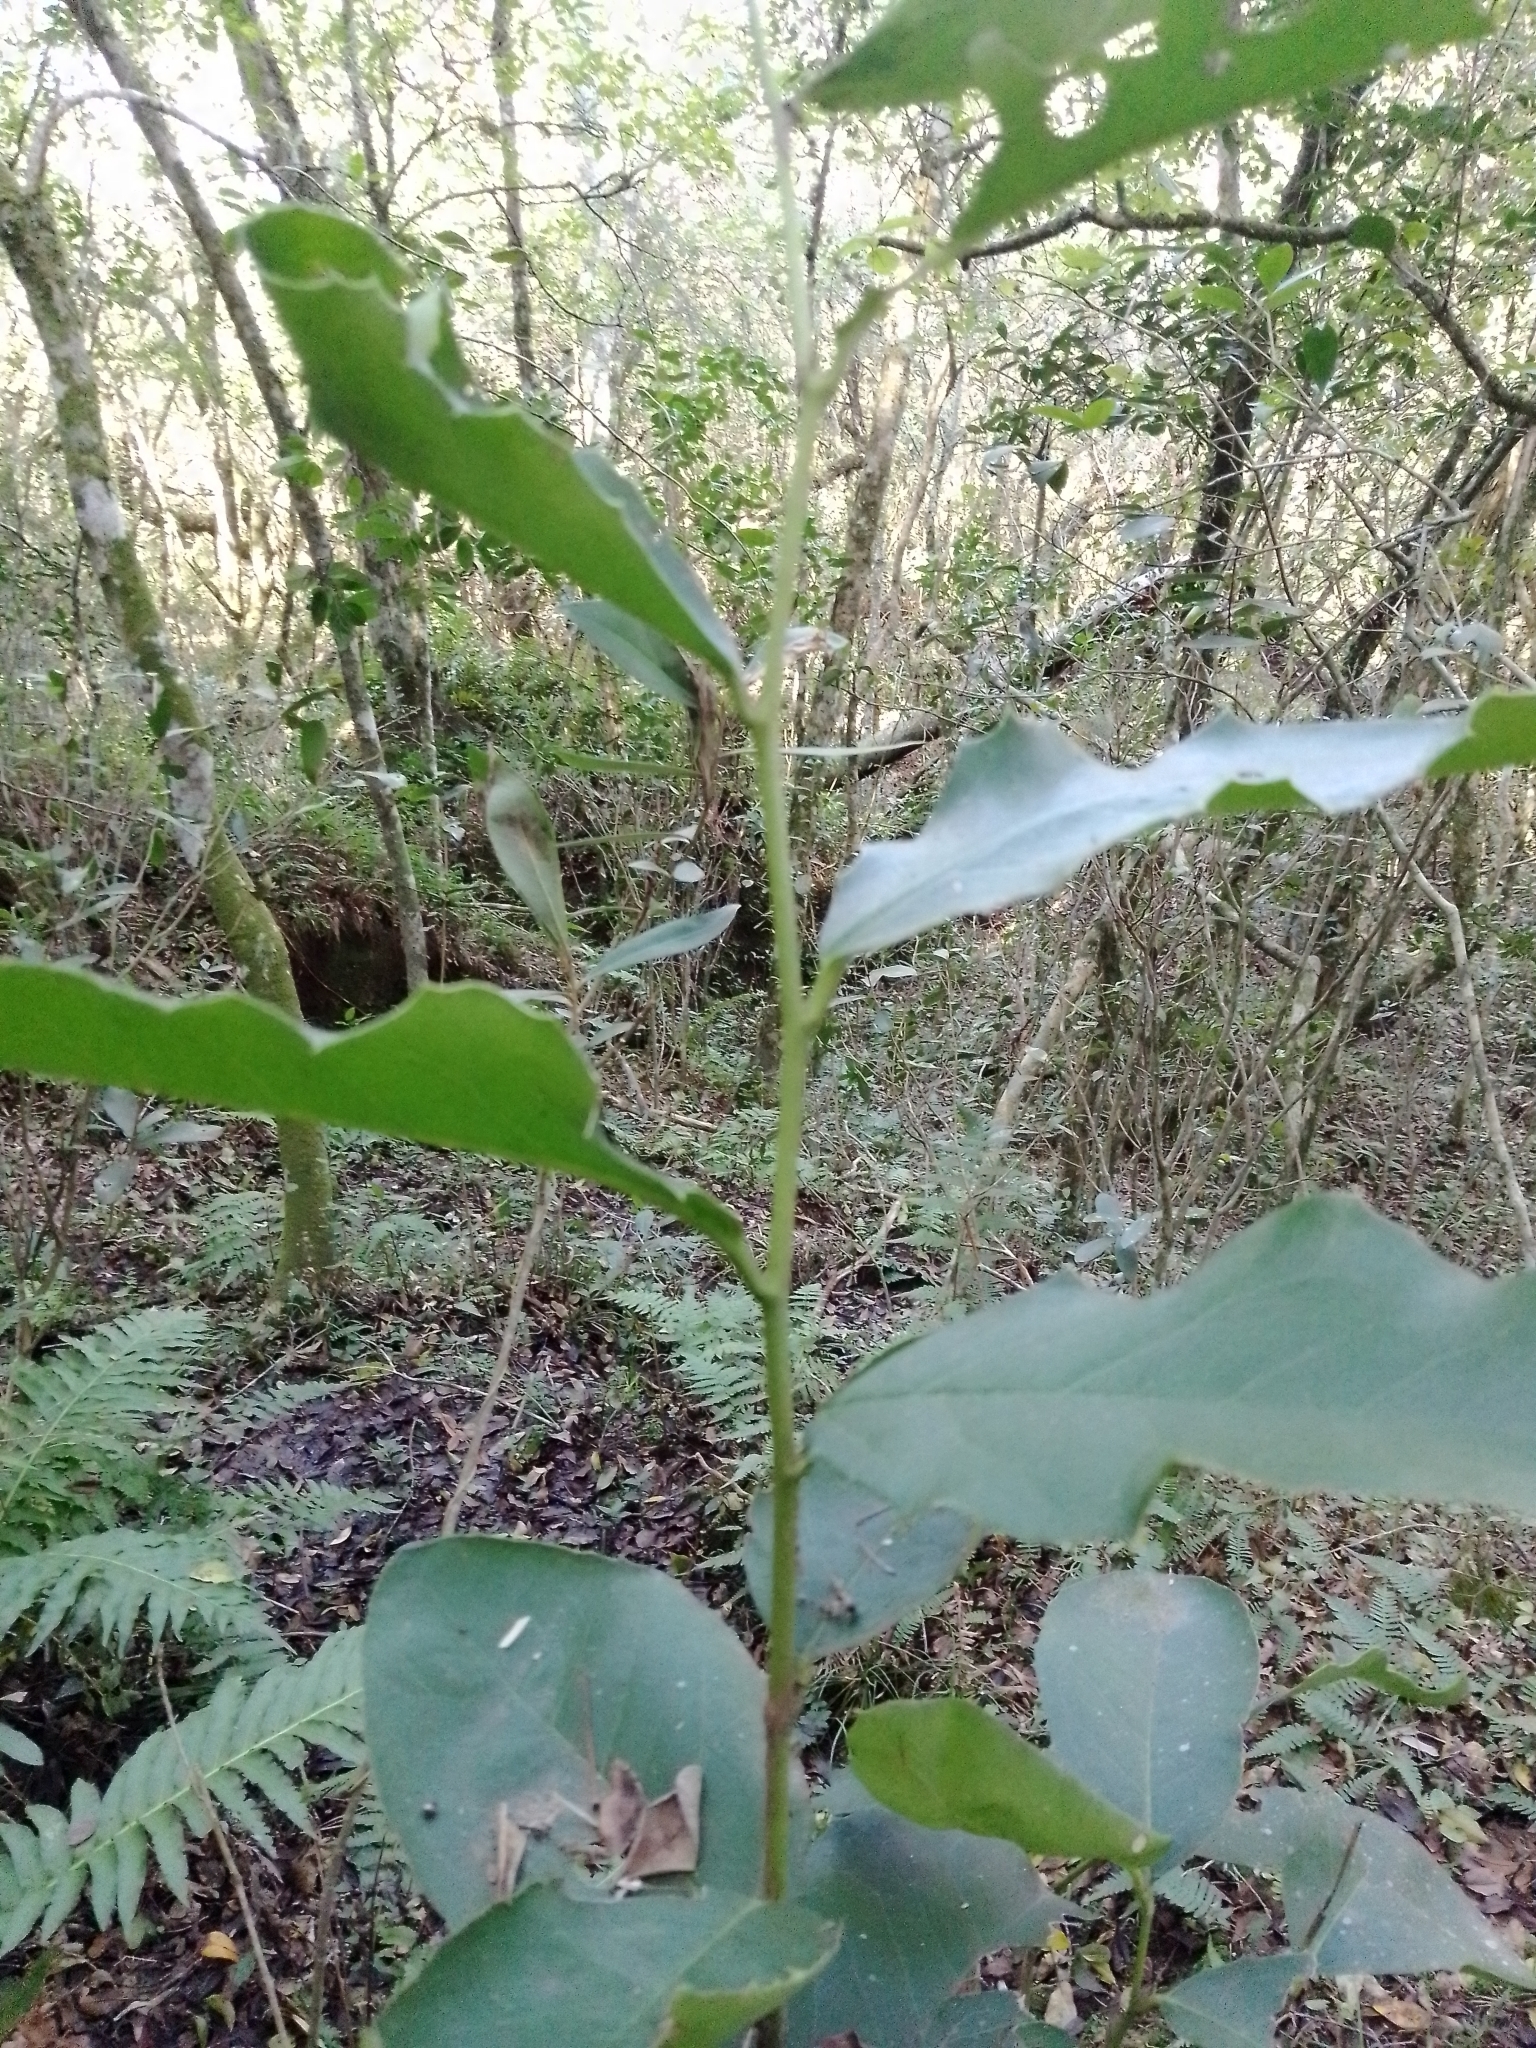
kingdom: Plantae
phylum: Tracheophyta
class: Magnoliopsida
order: Cardiopteridales
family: Cardiopteridaceae
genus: Citronella
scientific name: Citronella gongonha
